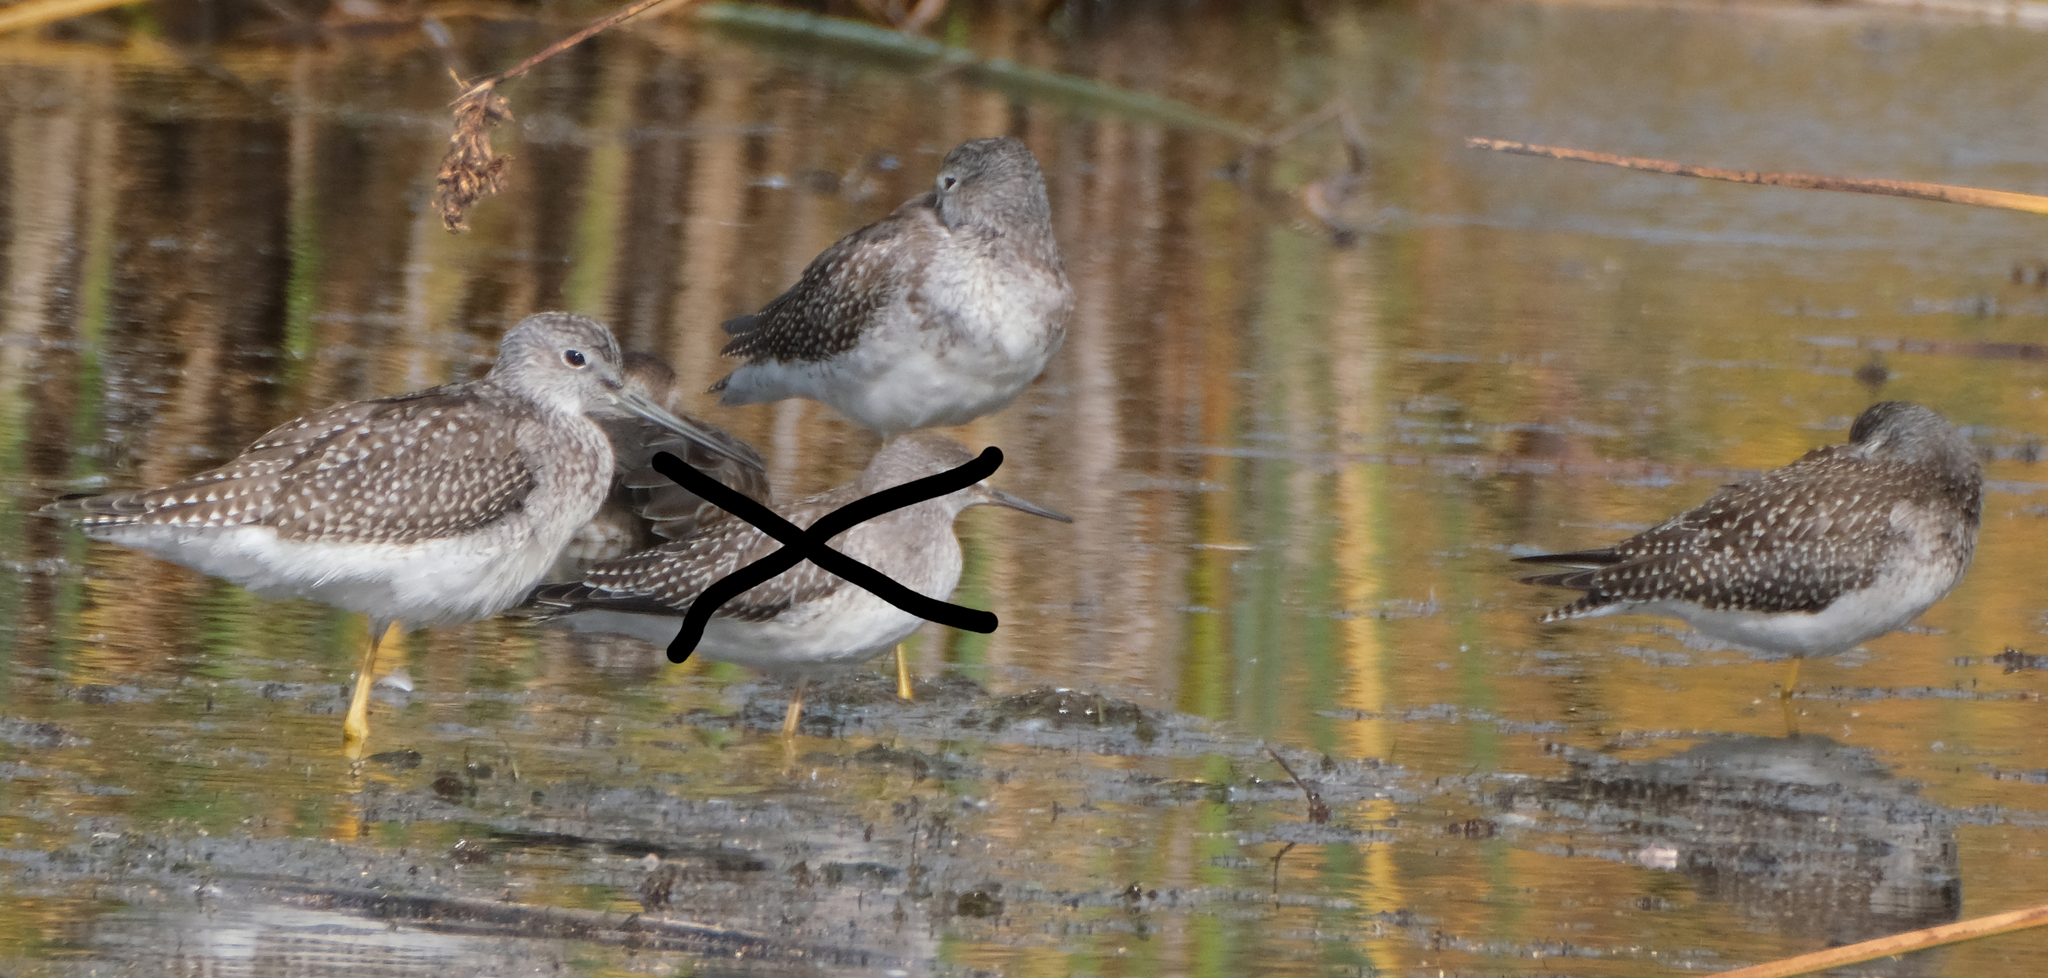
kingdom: Animalia
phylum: Chordata
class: Aves
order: Charadriiformes
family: Scolopacidae
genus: Tringa
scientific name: Tringa melanoleuca
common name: Greater yellowlegs
